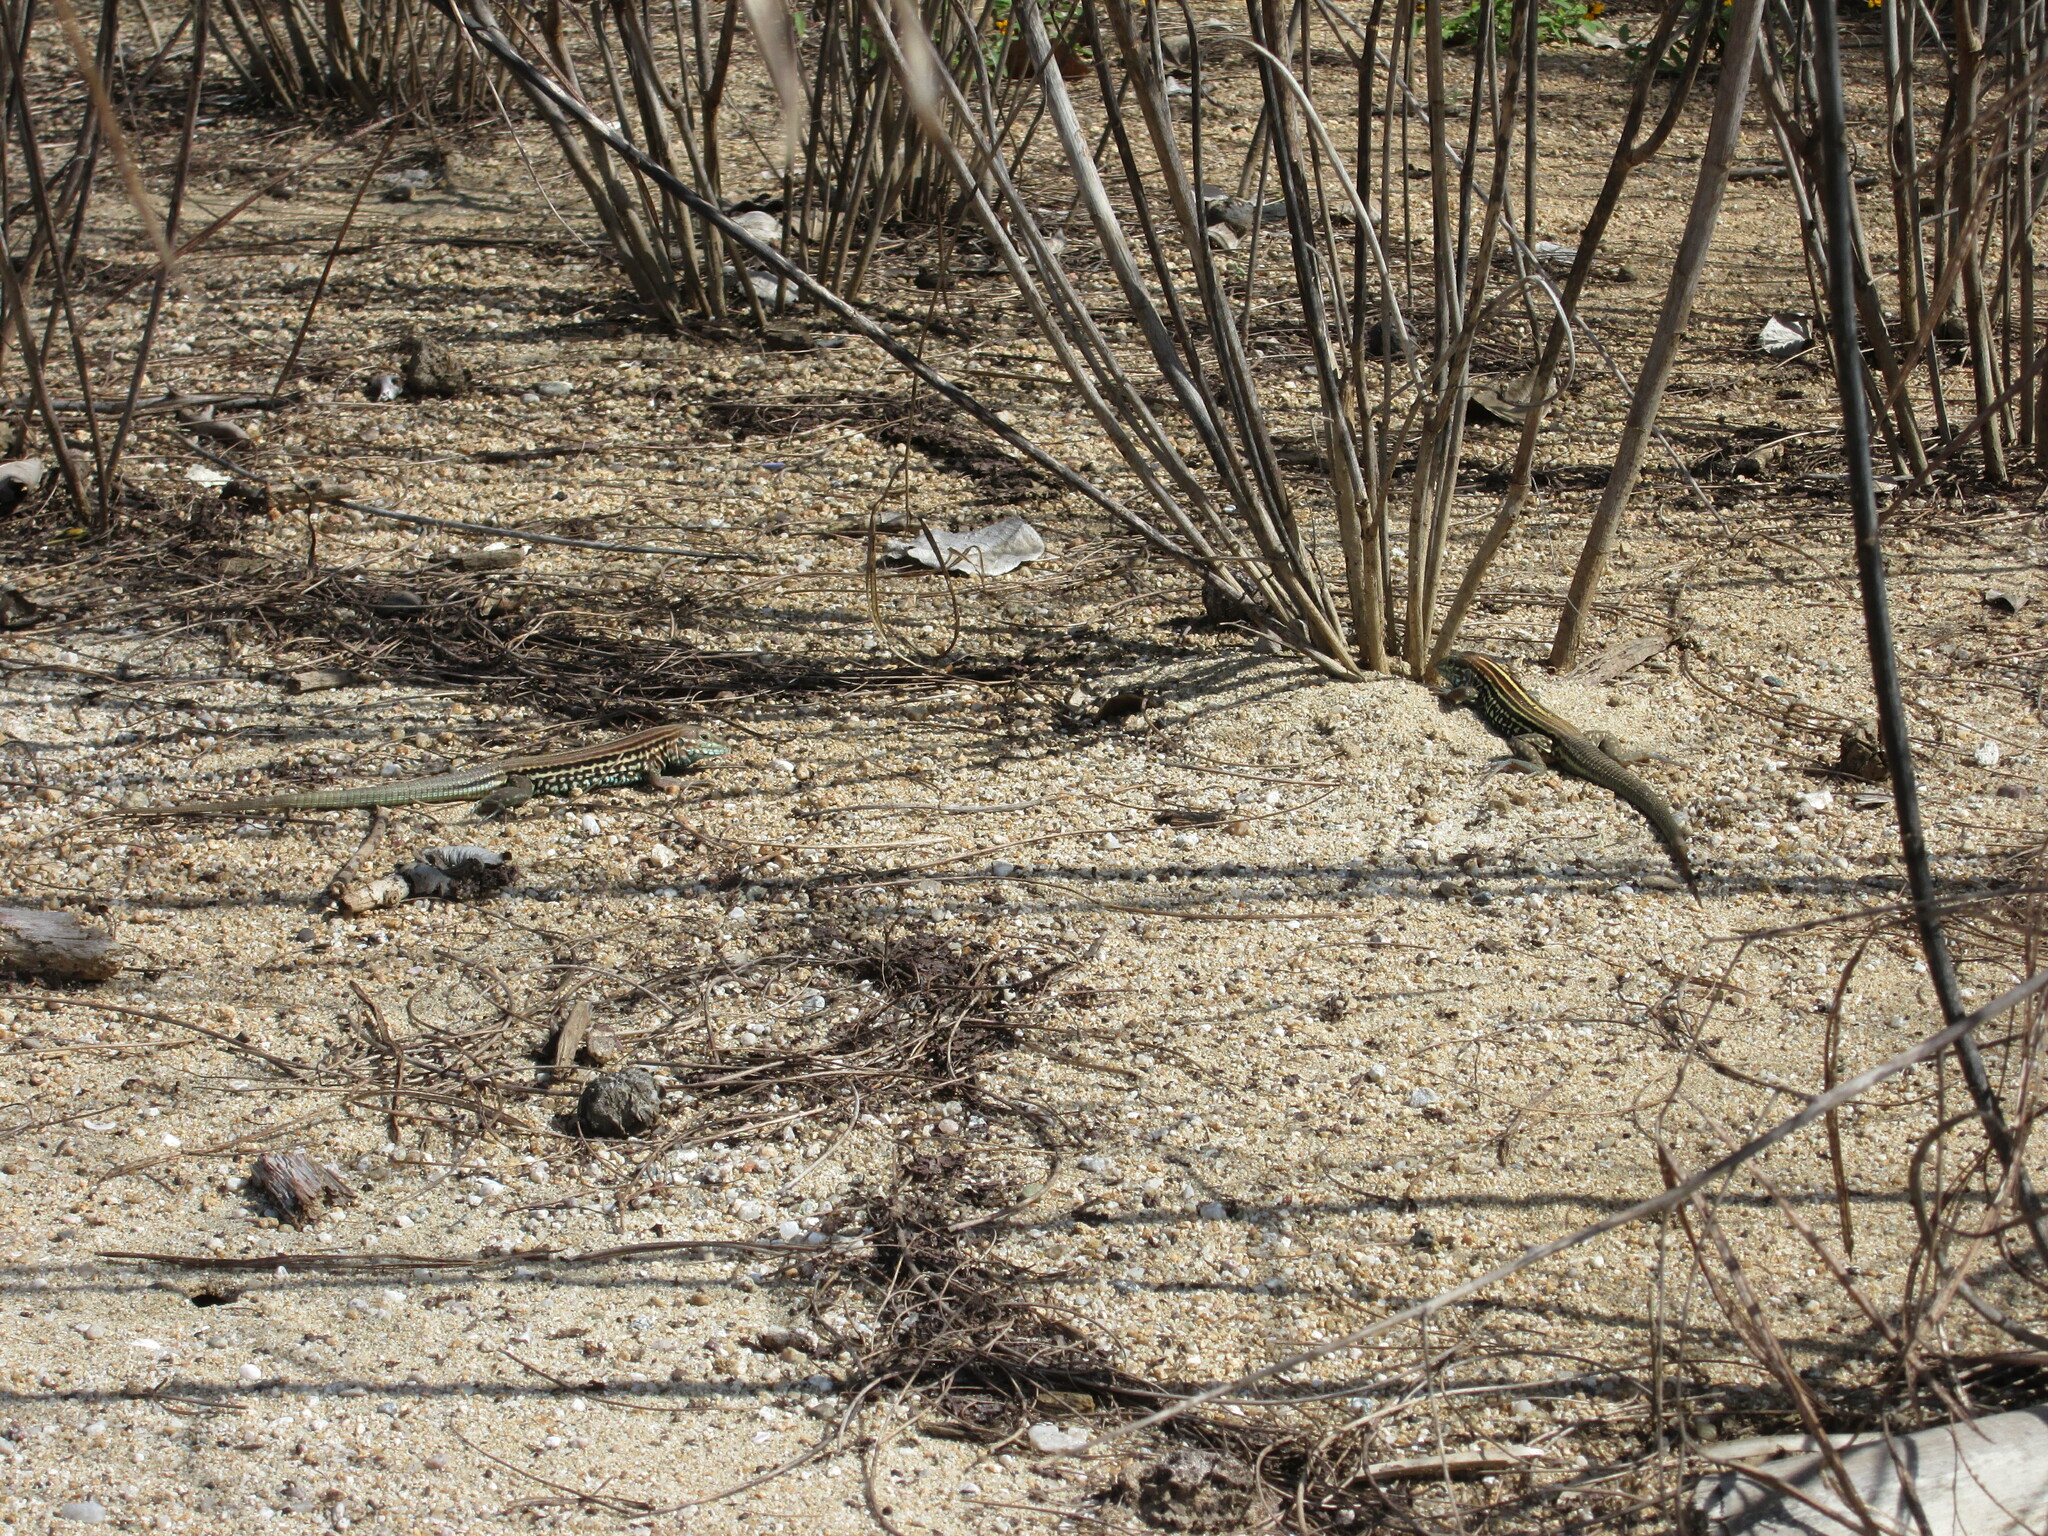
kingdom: Animalia
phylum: Chordata
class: Squamata
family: Teiidae
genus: Aspidoscelis
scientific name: Aspidoscelis lineattissimus
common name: Many-lined whiptail
